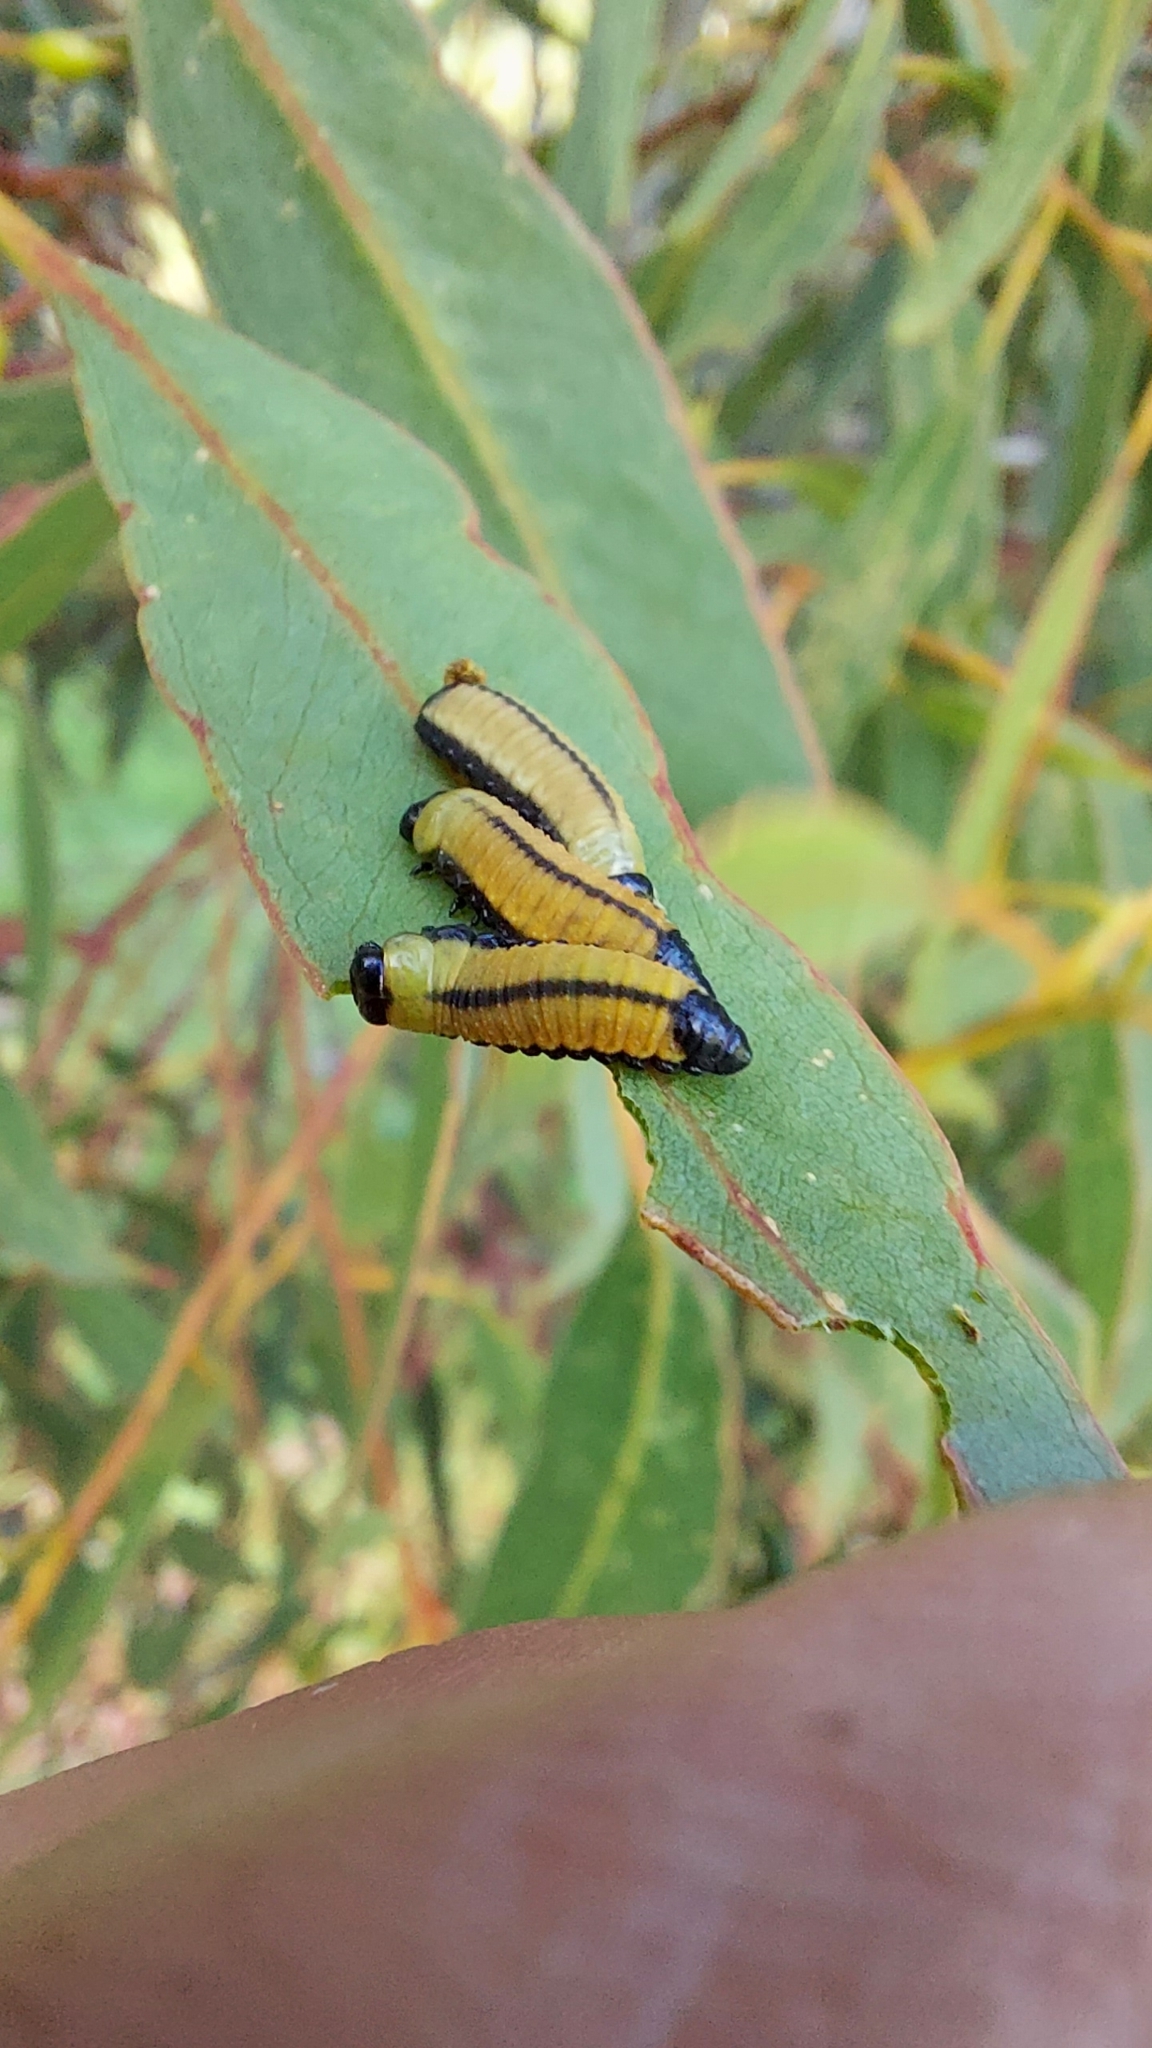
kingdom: Animalia
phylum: Arthropoda
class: Insecta
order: Coleoptera
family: Chrysomelidae
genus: Paropsisterna
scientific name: Paropsisterna cloelia
